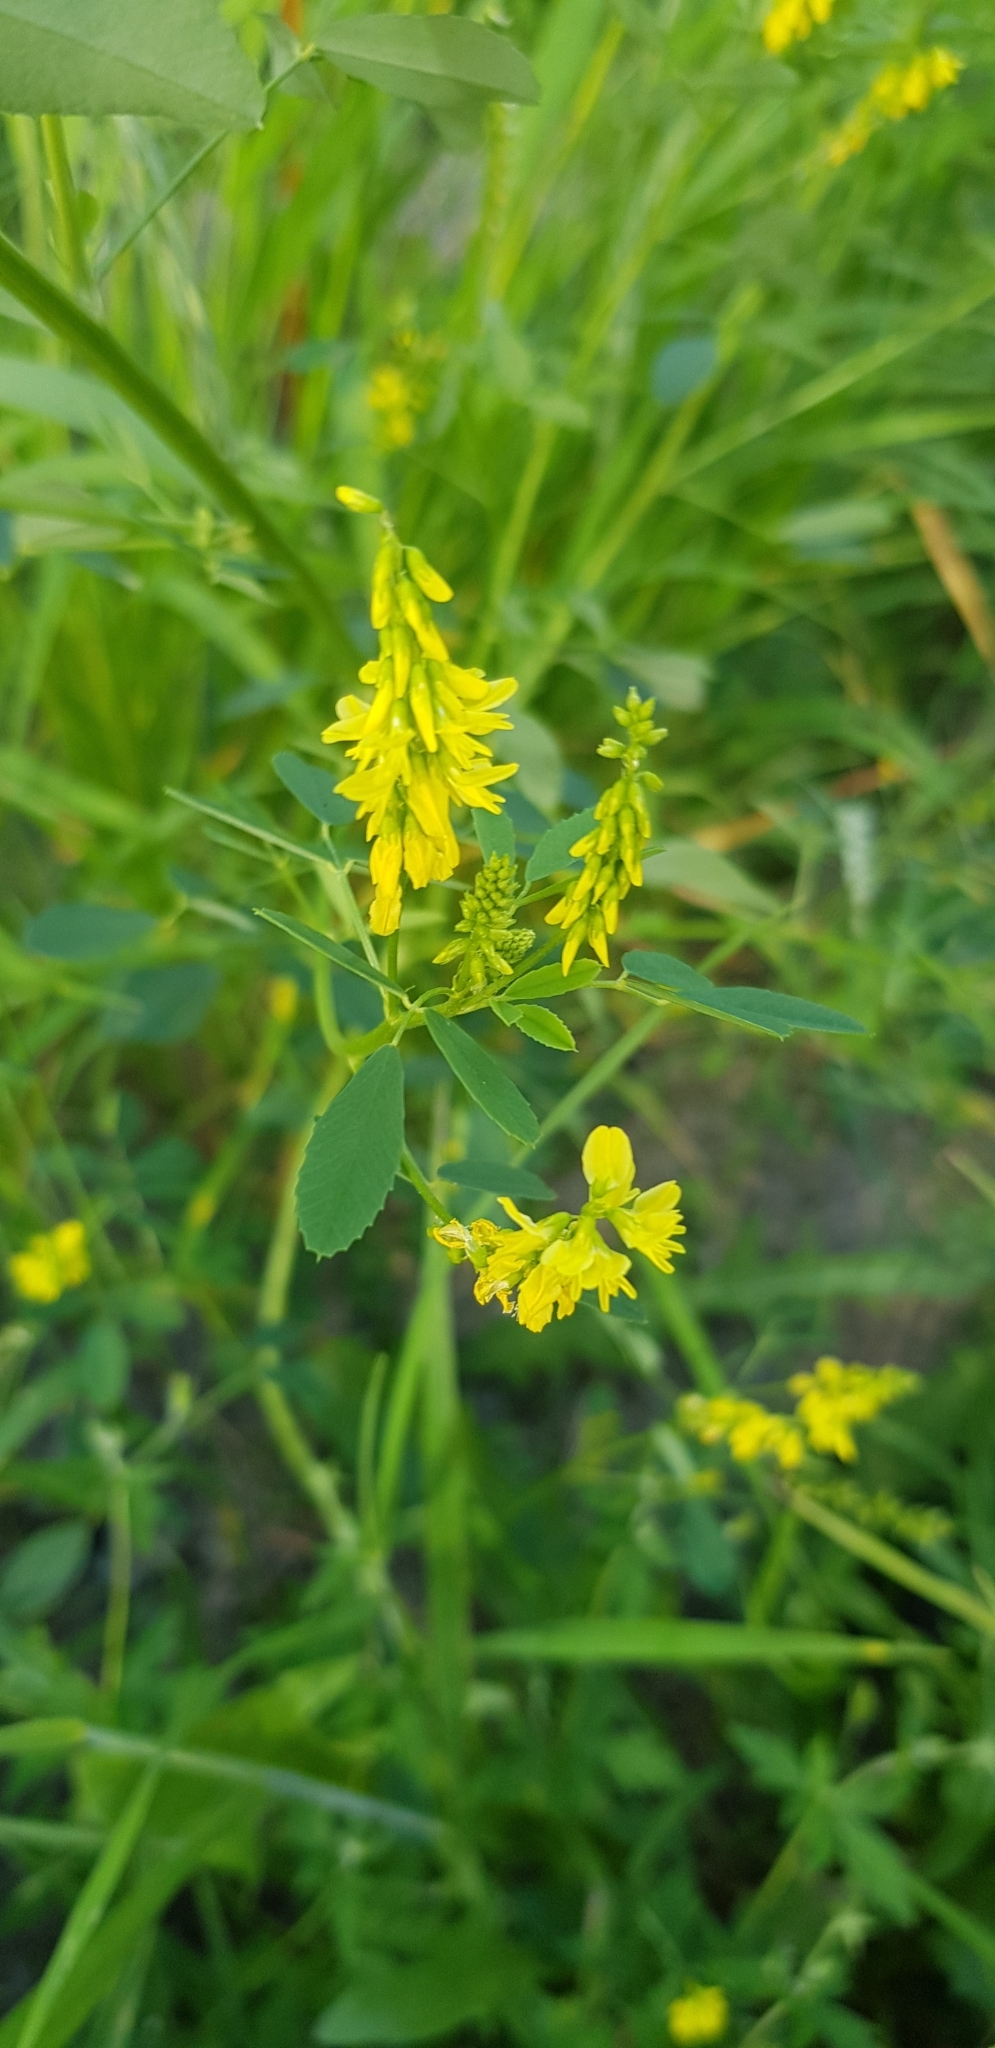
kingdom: Plantae
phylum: Tracheophyta
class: Magnoliopsida
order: Fabales
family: Fabaceae
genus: Melilotus
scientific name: Melilotus officinalis
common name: Sweetclover
